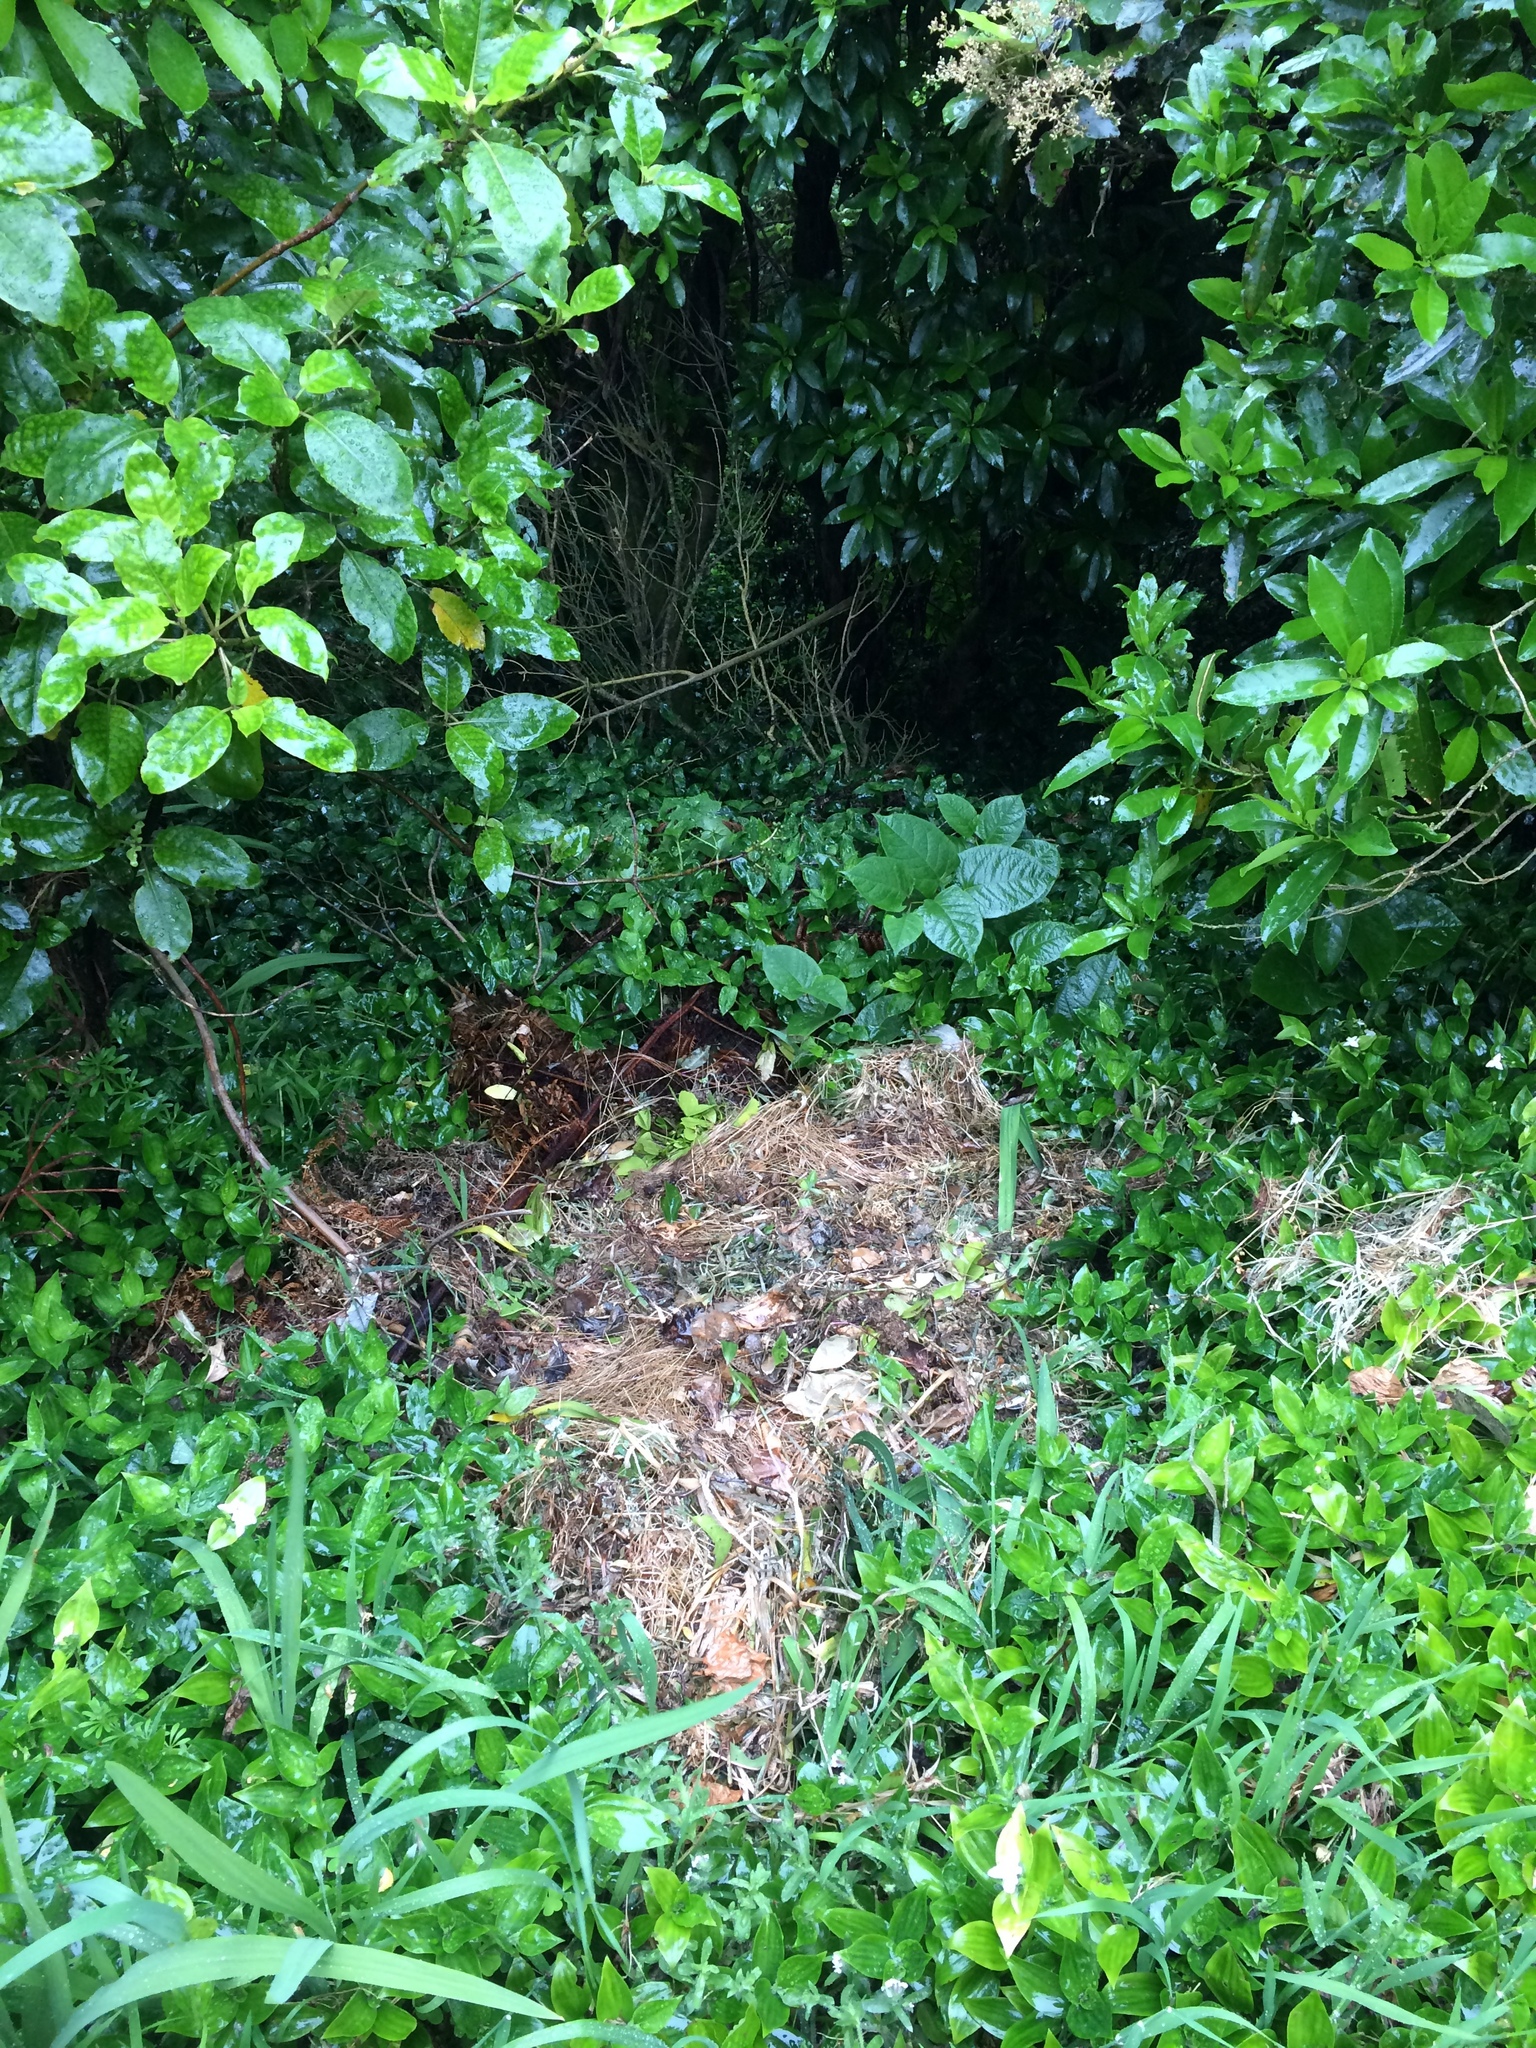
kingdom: Plantae
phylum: Tracheophyta
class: Magnoliopsida
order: Caryophyllales
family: Polygonaceae
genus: Reynoutria
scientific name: Reynoutria japonica
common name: Japanese knotweed
